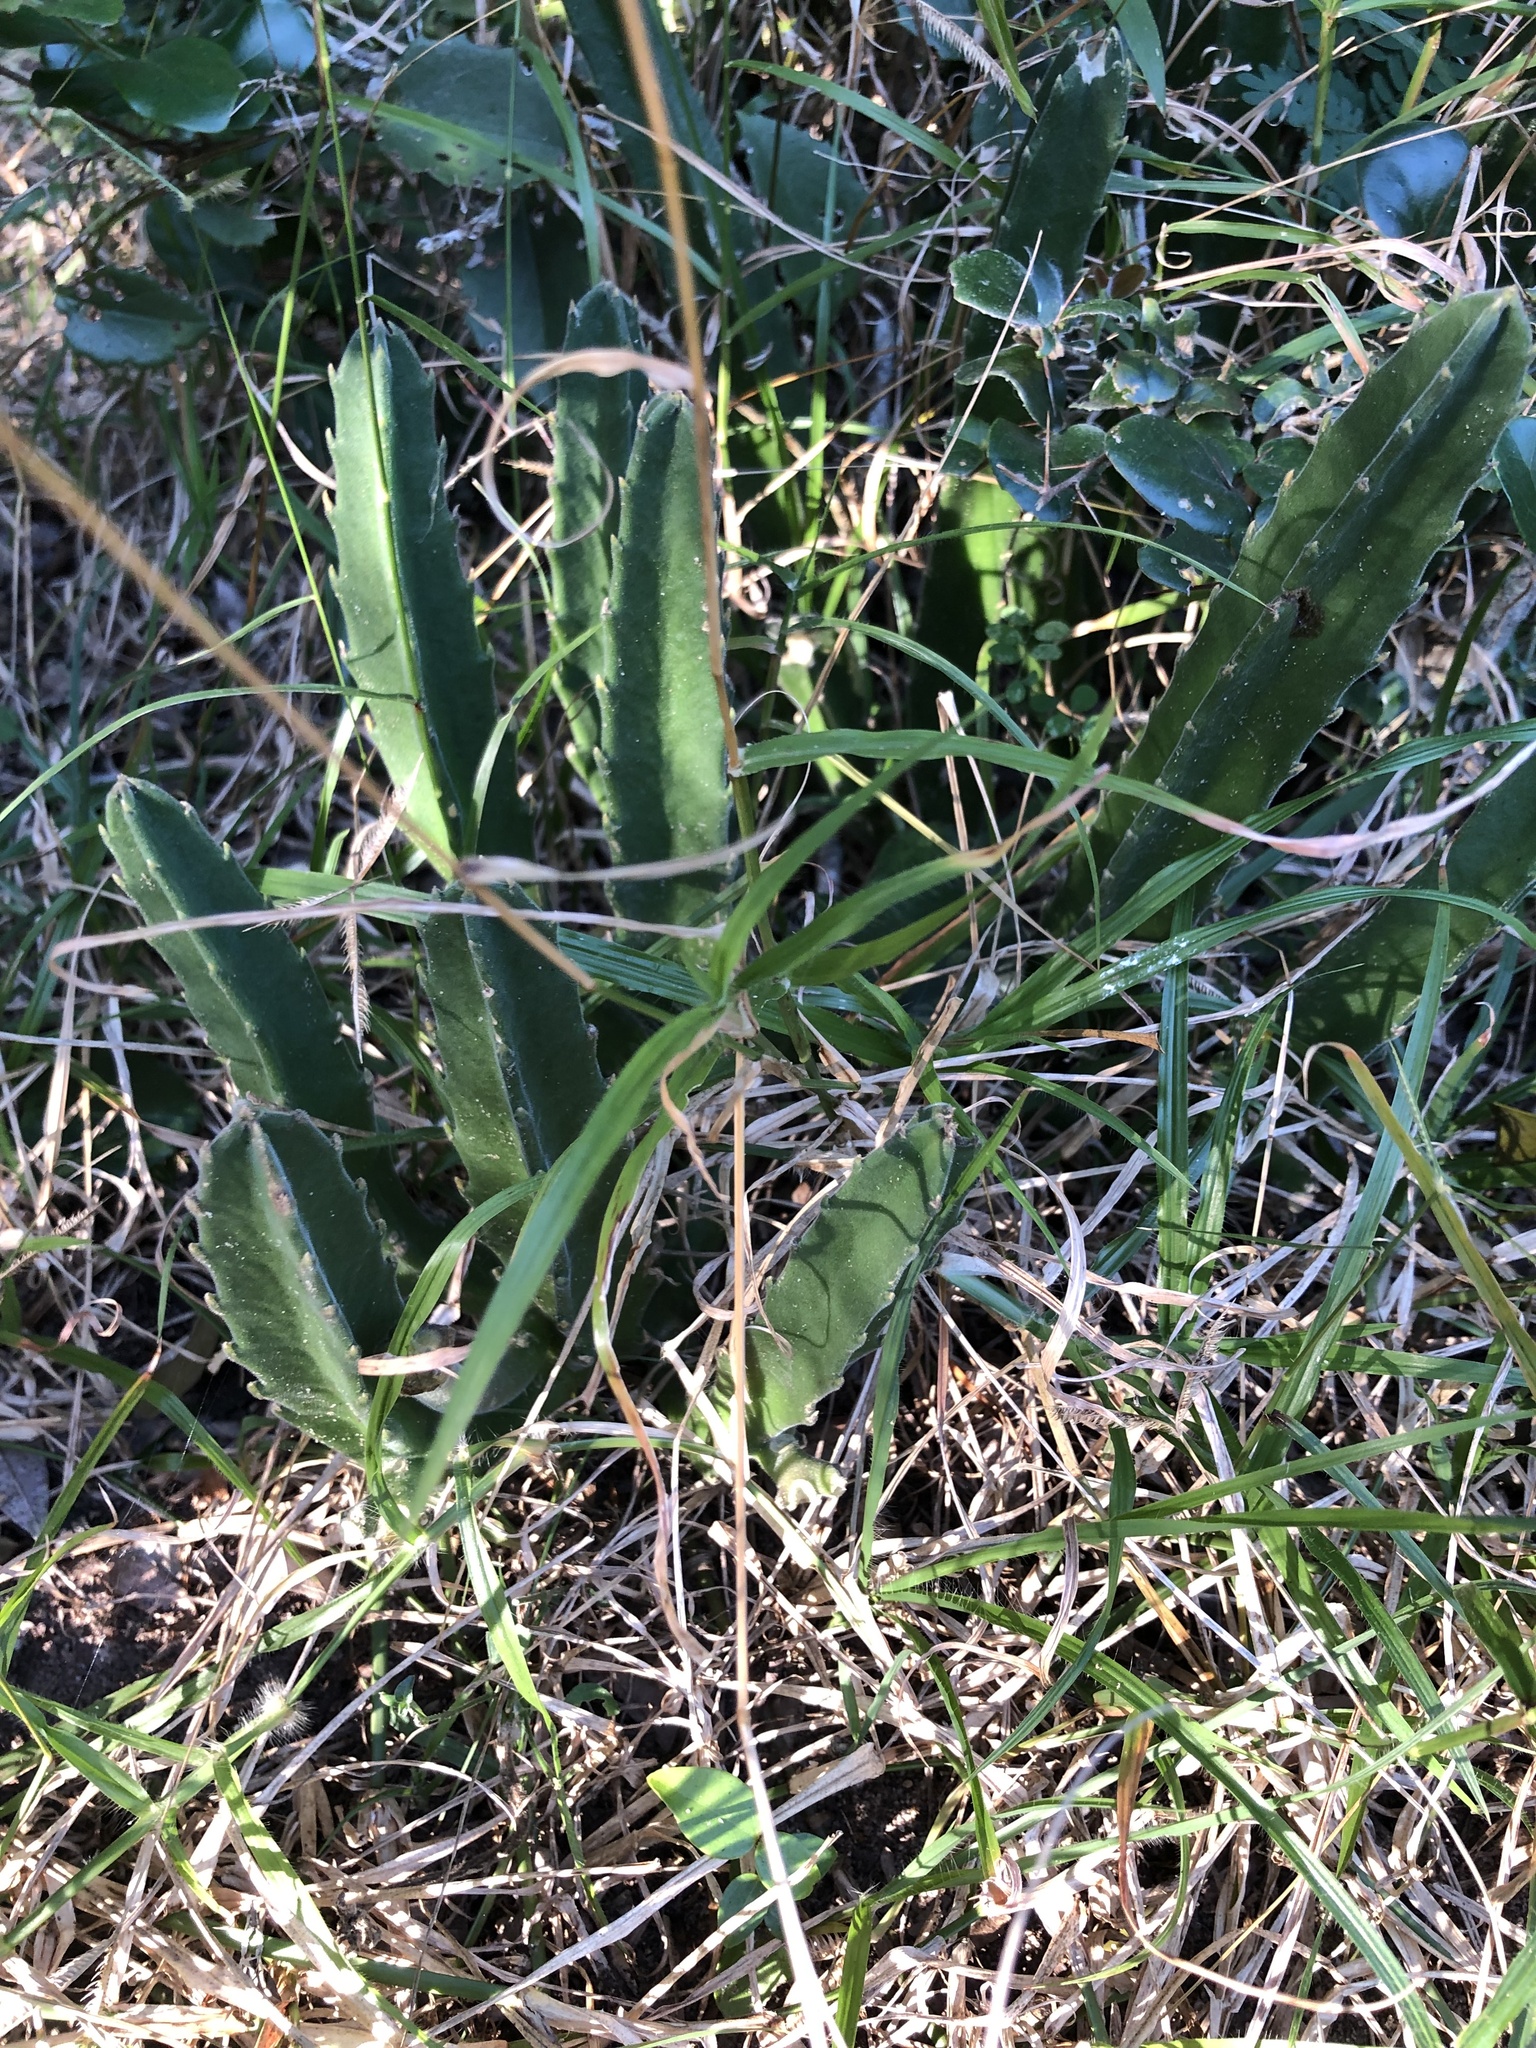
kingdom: Plantae
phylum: Tracheophyta
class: Magnoliopsida
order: Gentianales
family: Apocynaceae
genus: Ceropegia
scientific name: Ceropegia gigantea
